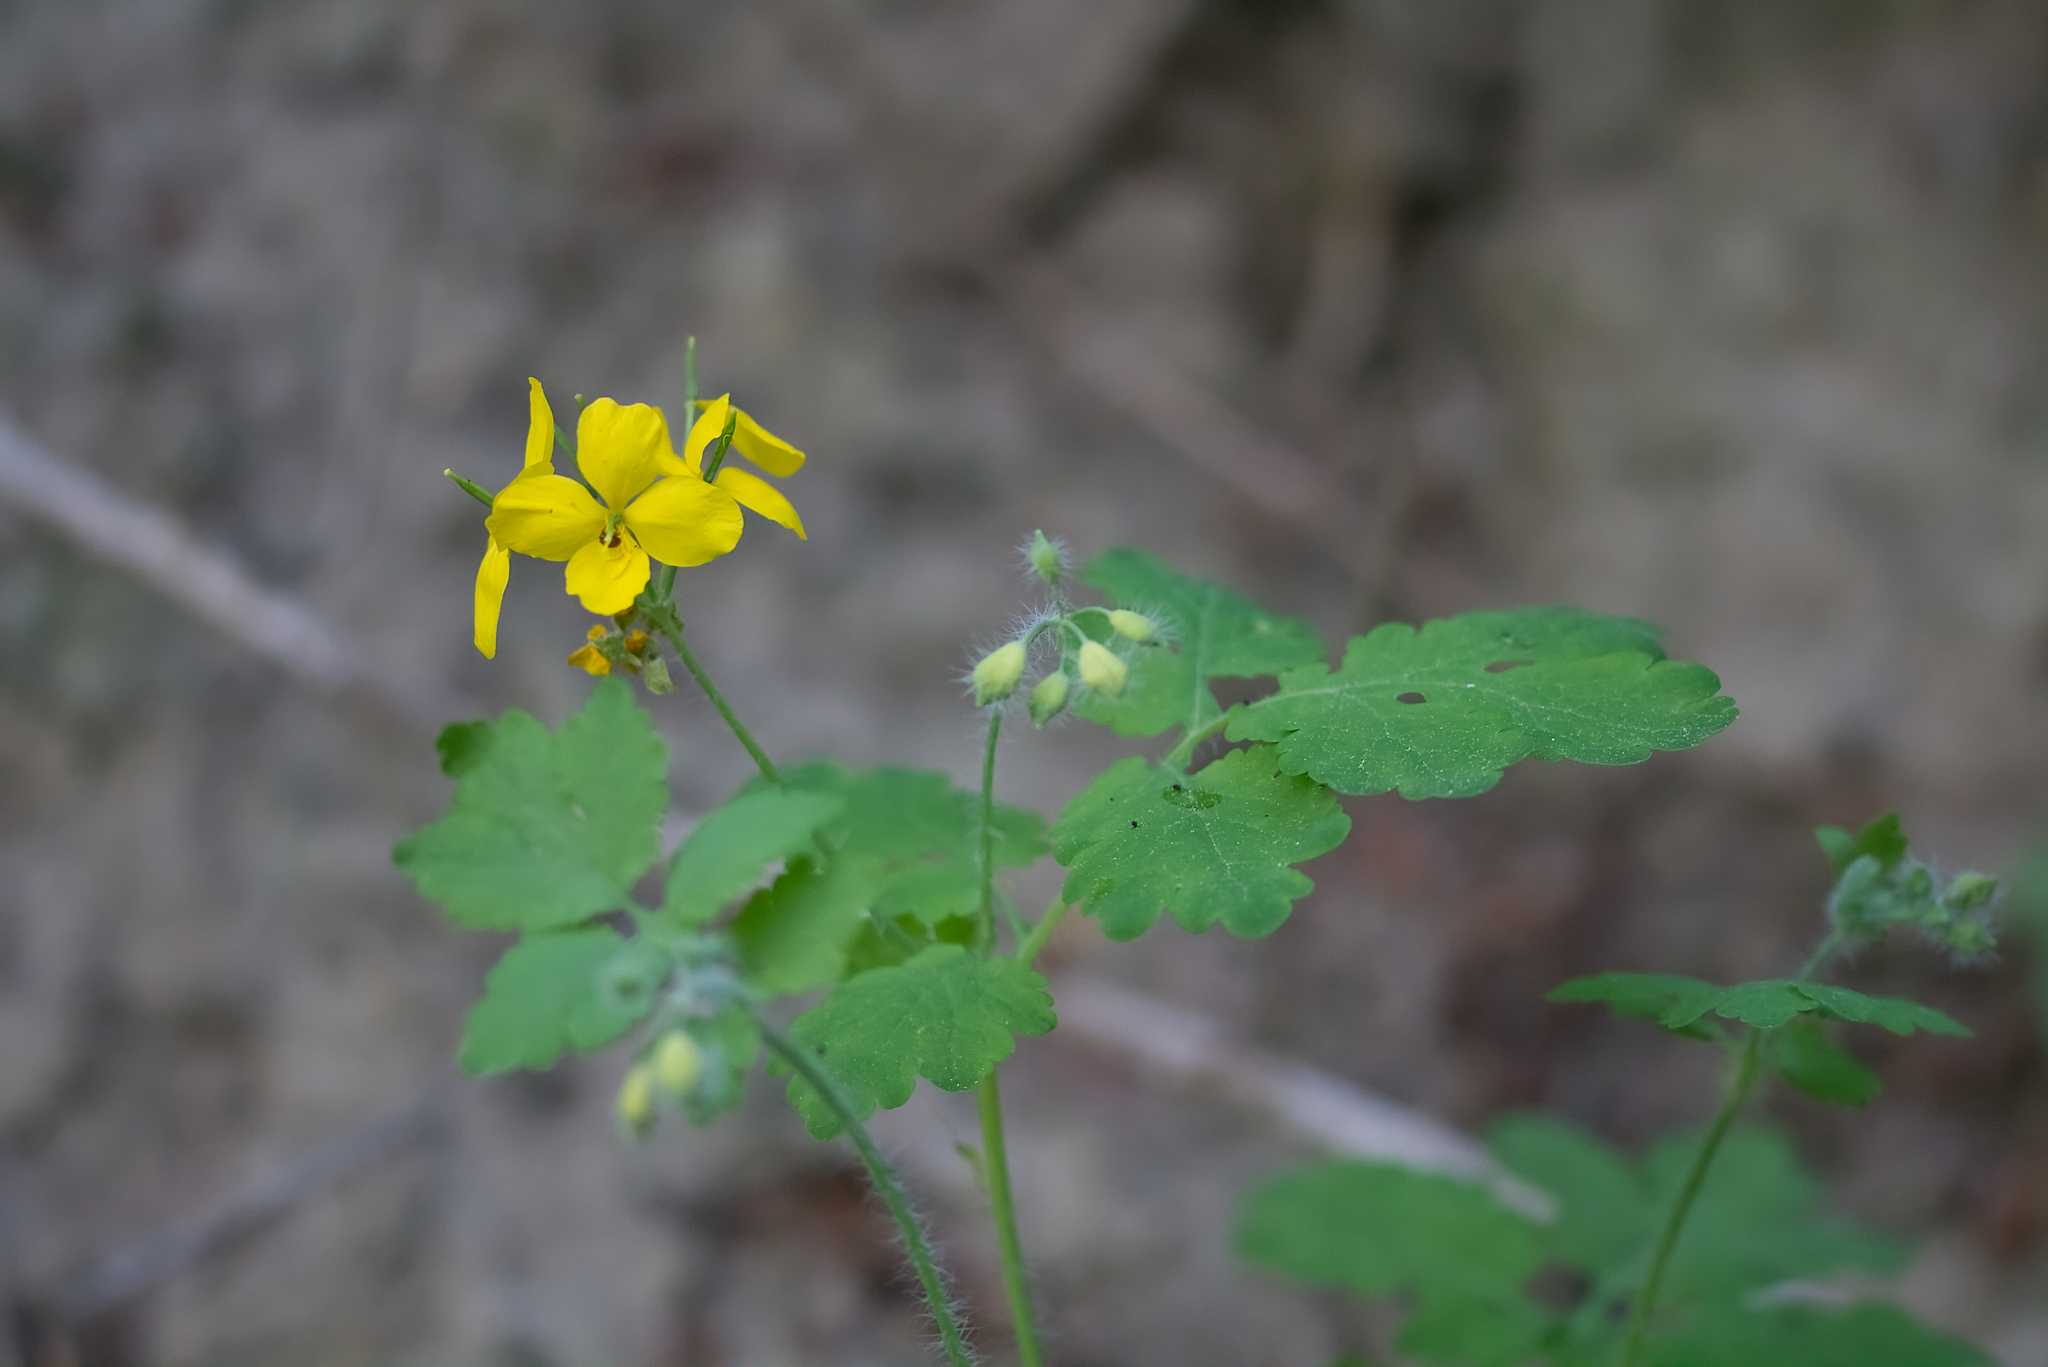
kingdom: Plantae
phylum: Tracheophyta
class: Magnoliopsida
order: Ranunculales
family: Papaveraceae
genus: Chelidonium
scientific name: Chelidonium majus
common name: Greater celandine
